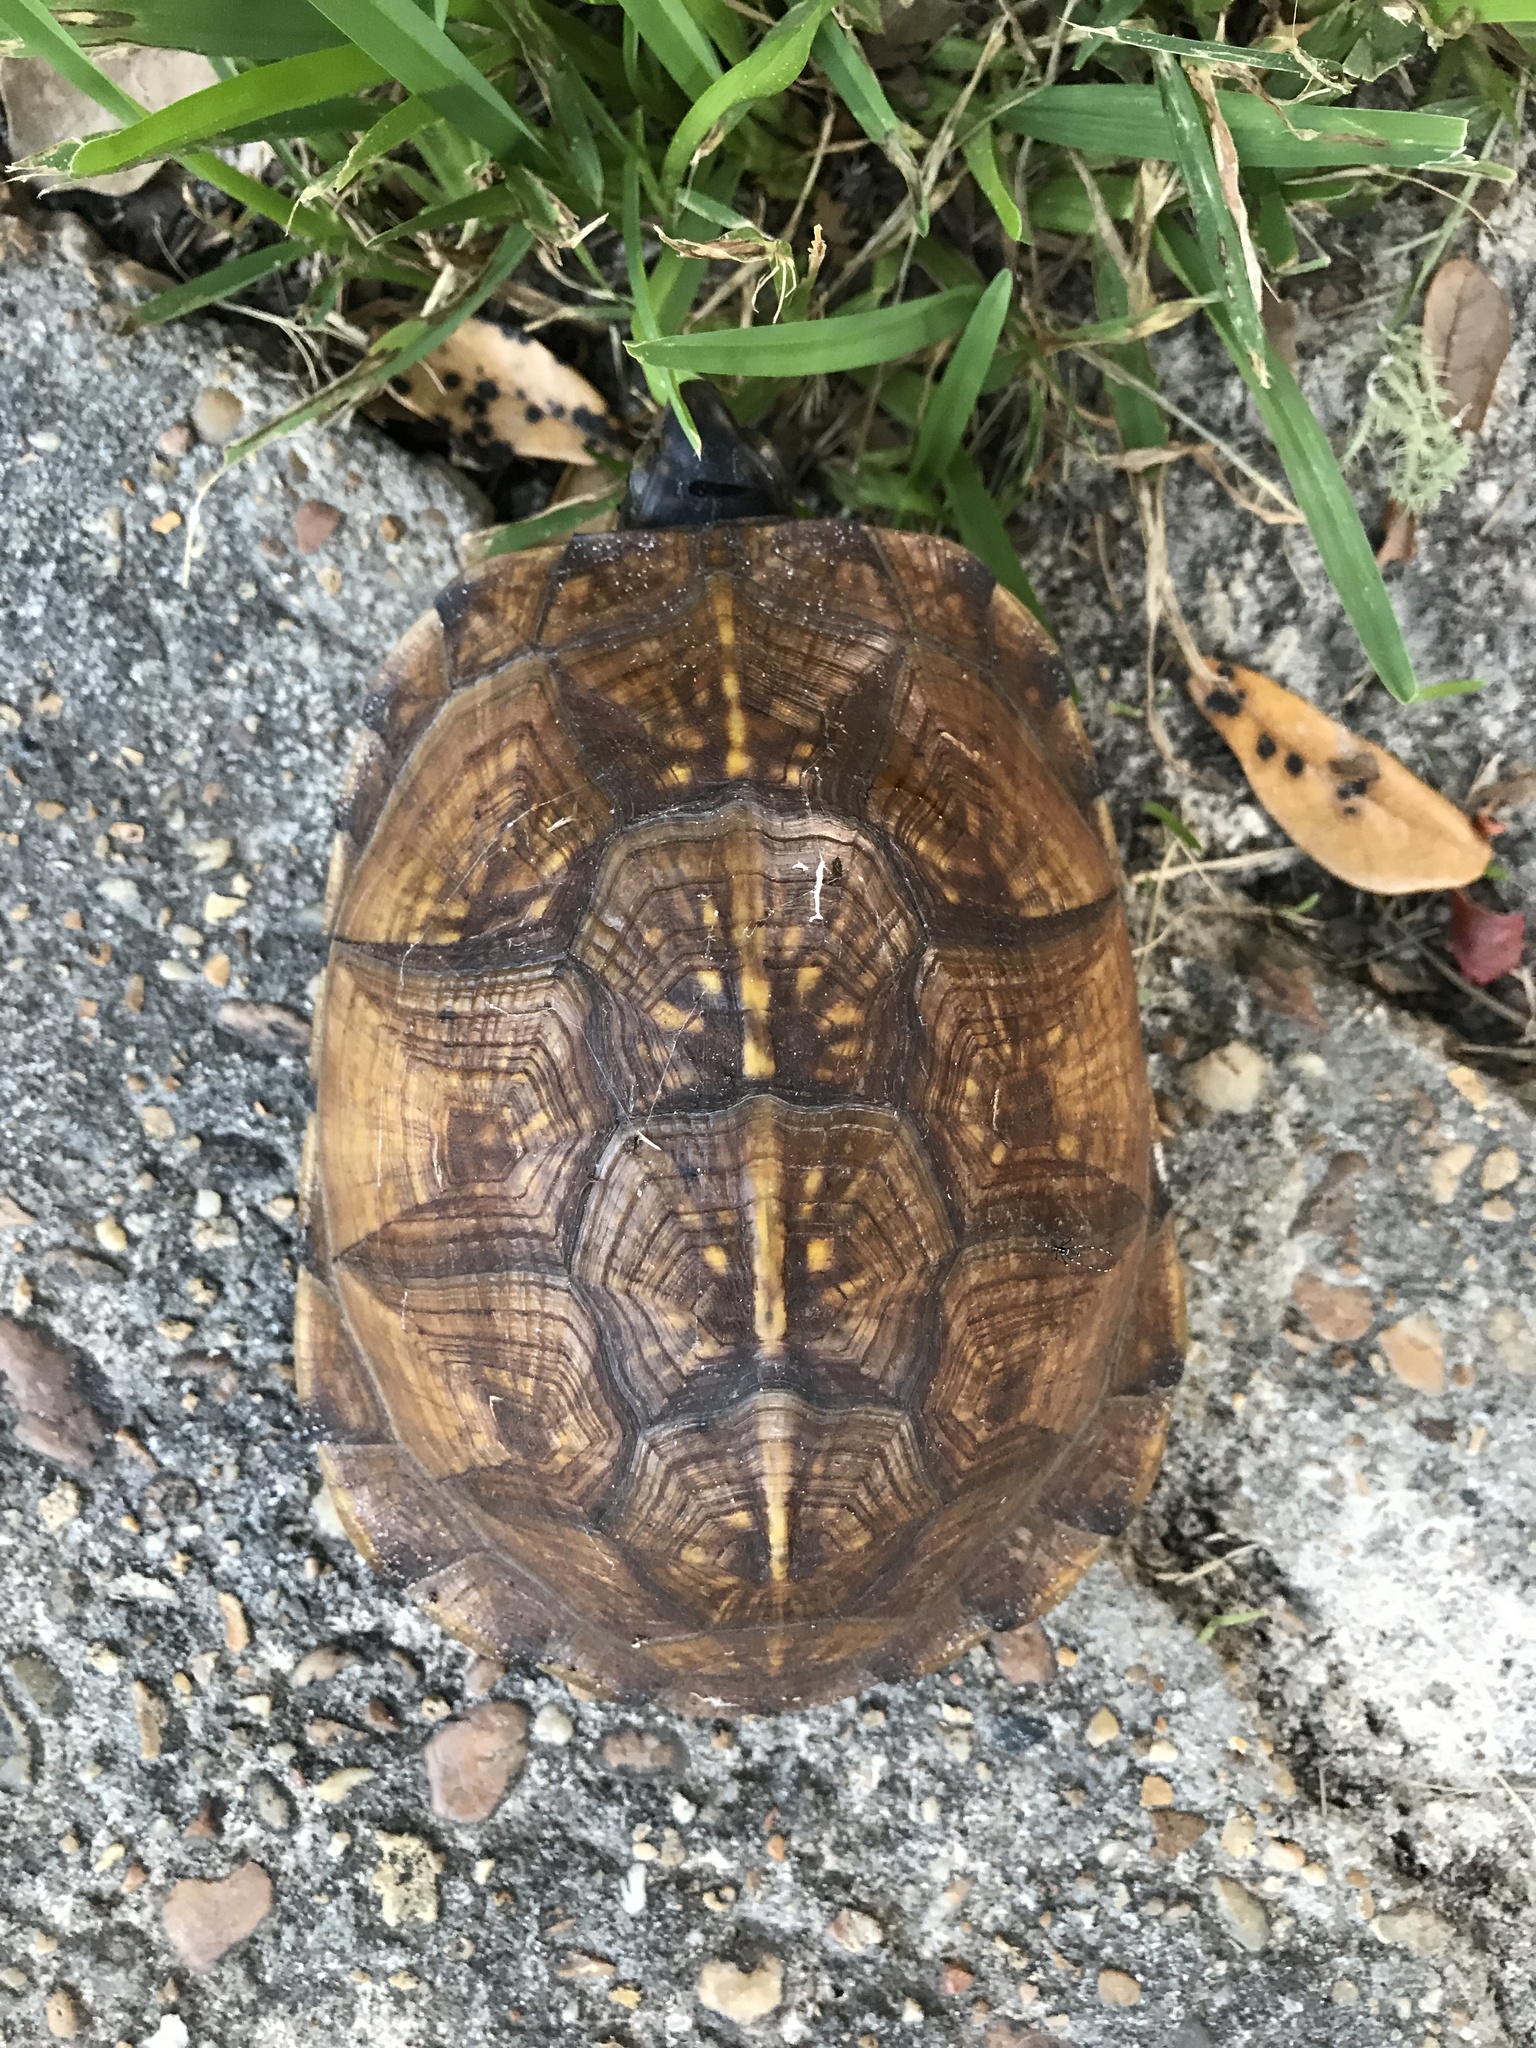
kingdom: Animalia
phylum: Chordata
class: Testudines
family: Emydidae
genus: Terrapene
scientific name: Terrapene carolina
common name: Common box turtle
